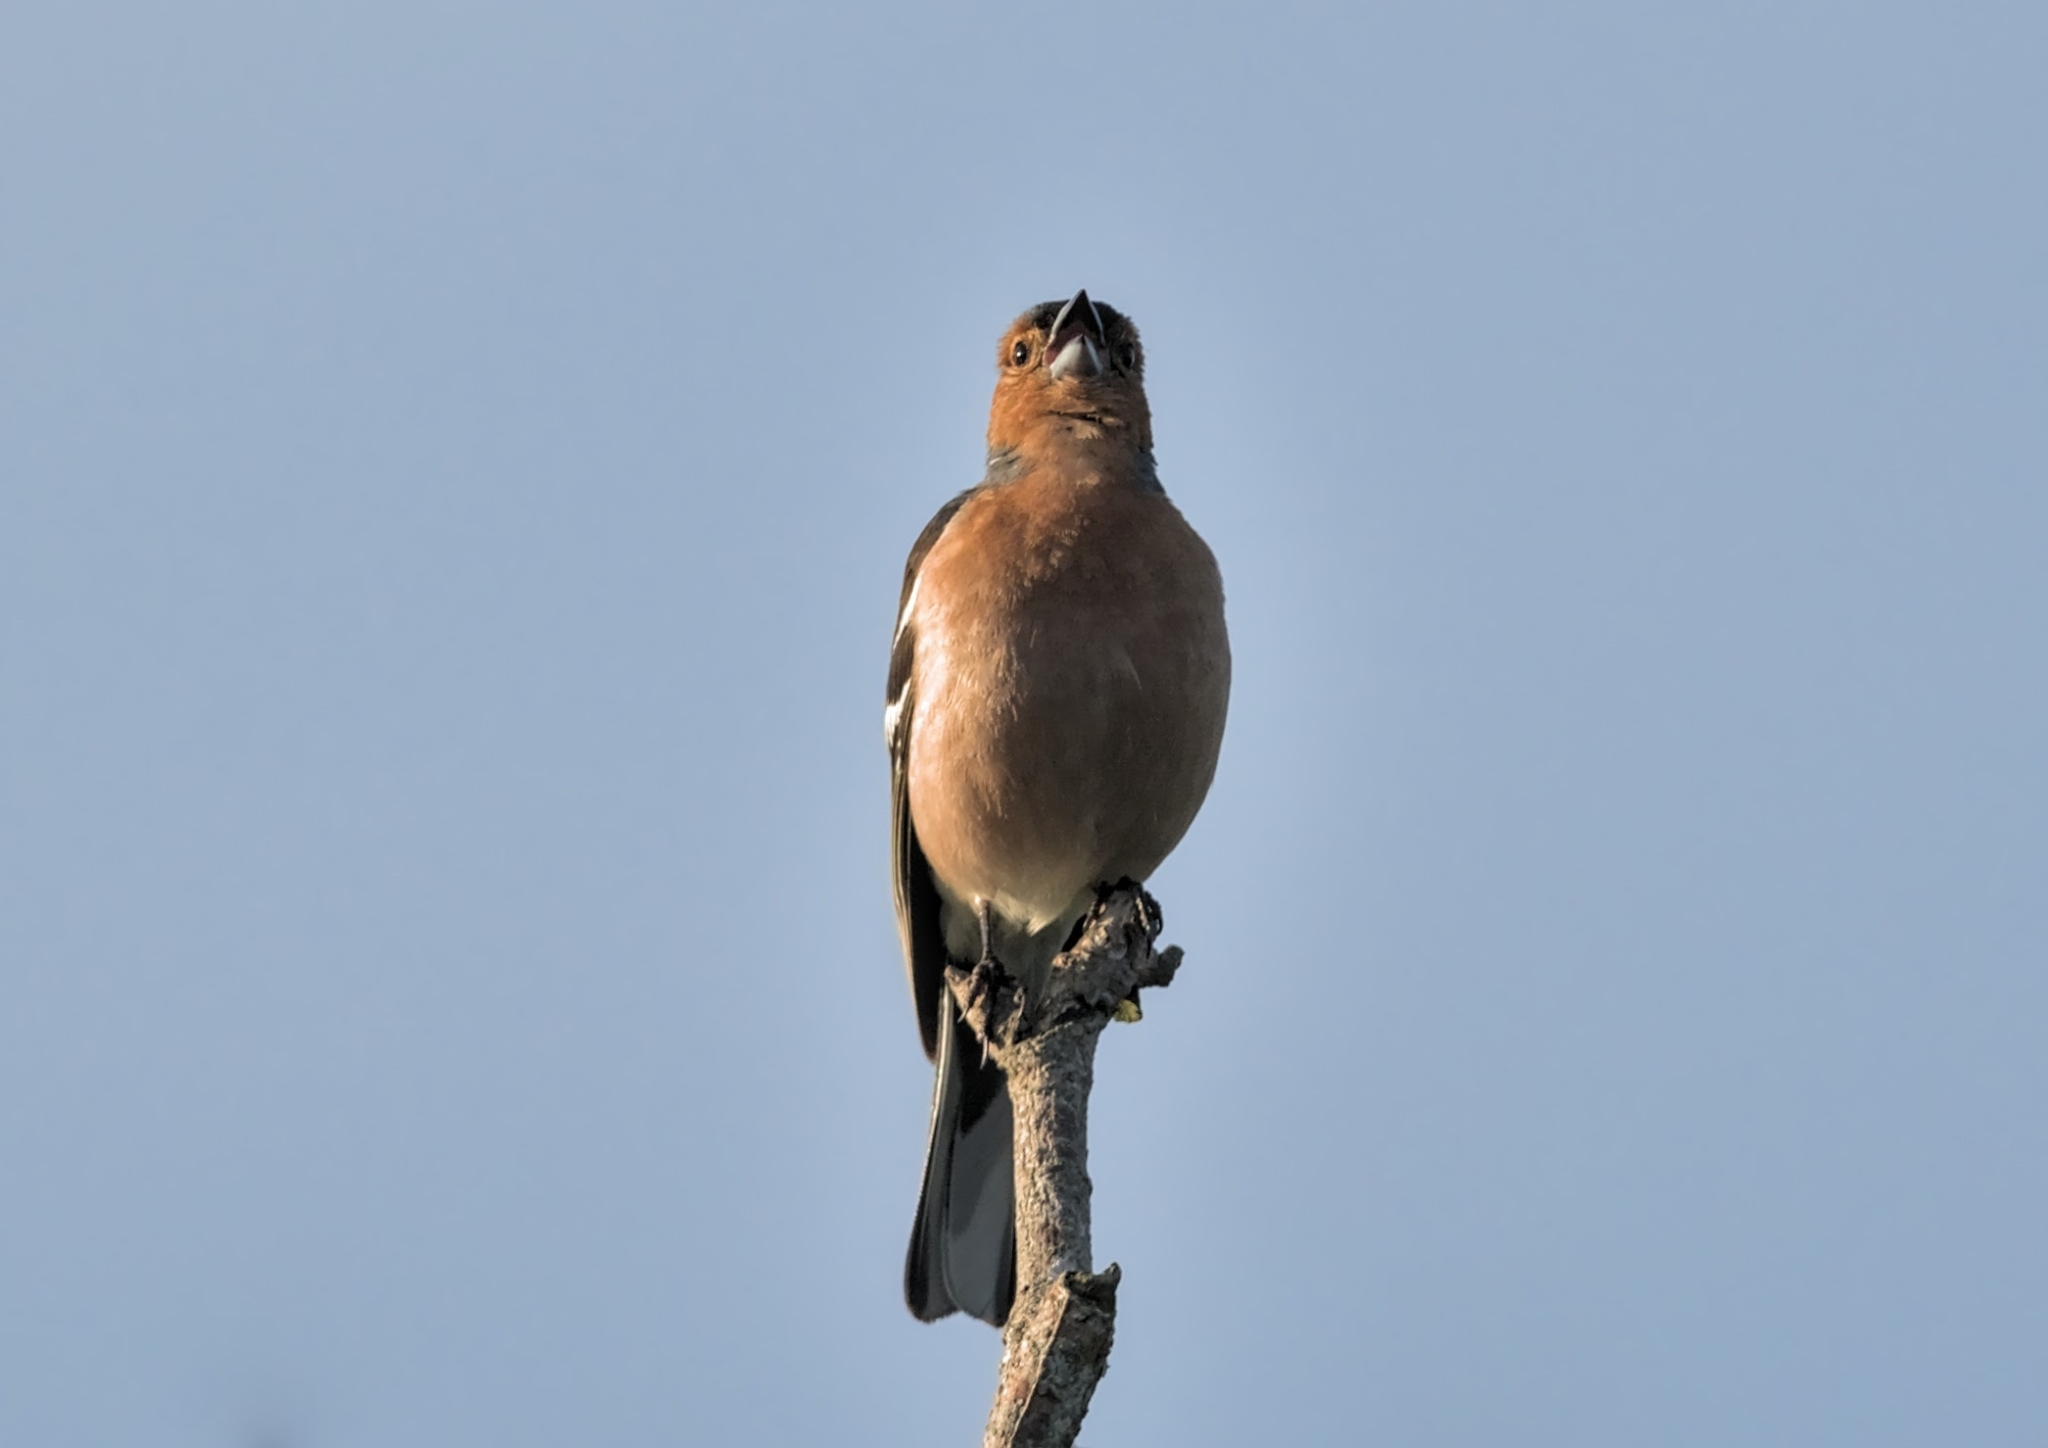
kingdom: Animalia
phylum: Chordata
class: Aves
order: Passeriformes
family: Fringillidae
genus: Fringilla
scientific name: Fringilla coelebs
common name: Common chaffinch
